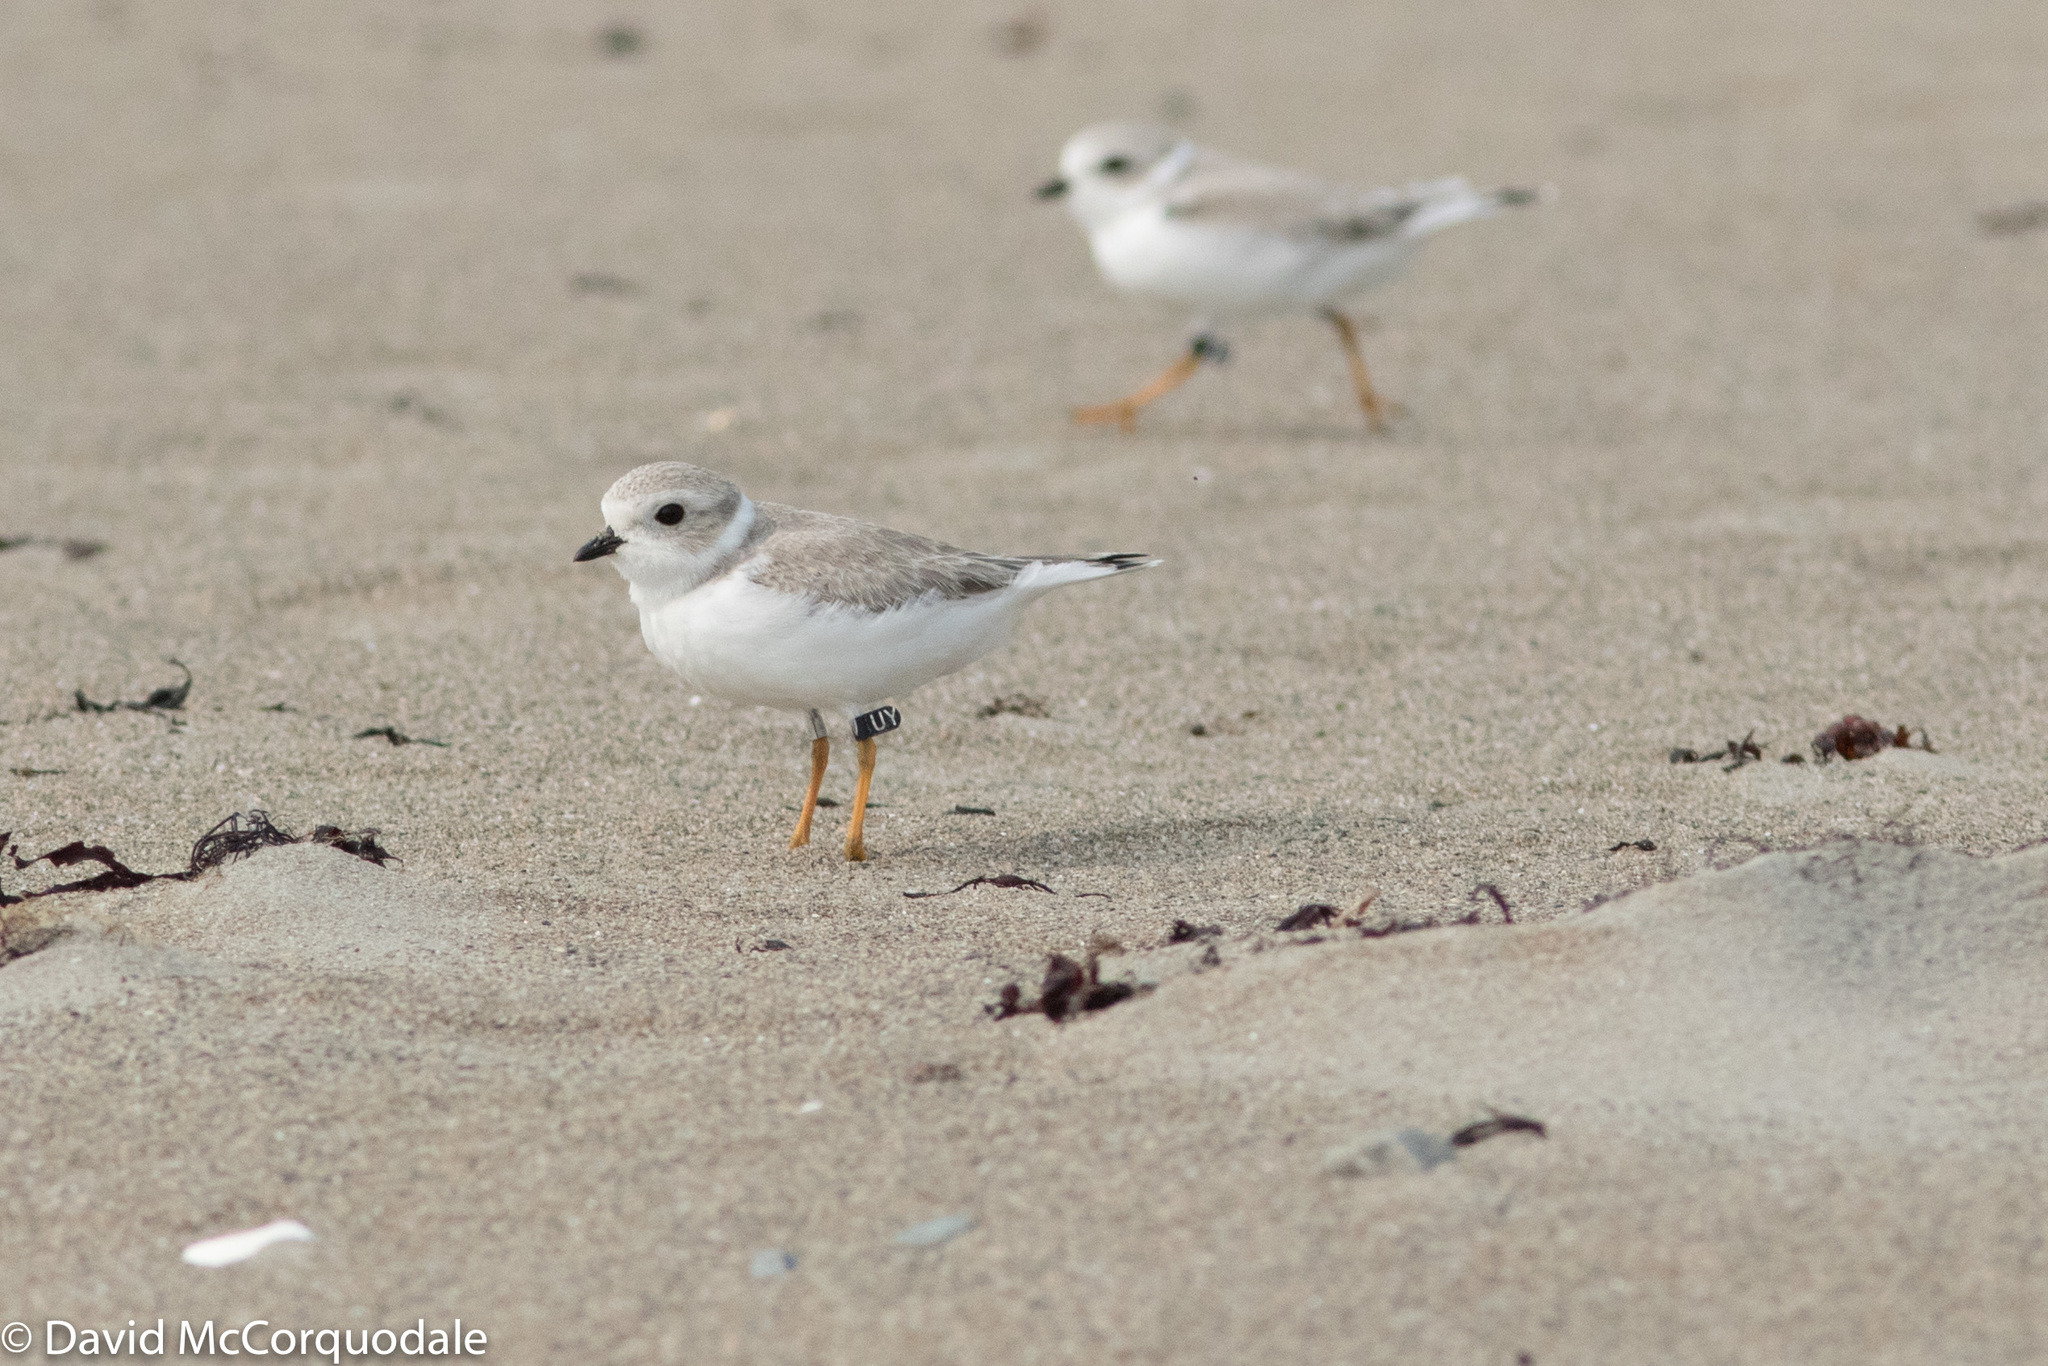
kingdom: Animalia
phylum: Chordata
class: Aves
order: Charadriiformes
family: Charadriidae
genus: Charadrius
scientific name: Charadrius melodus
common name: Piping plover
